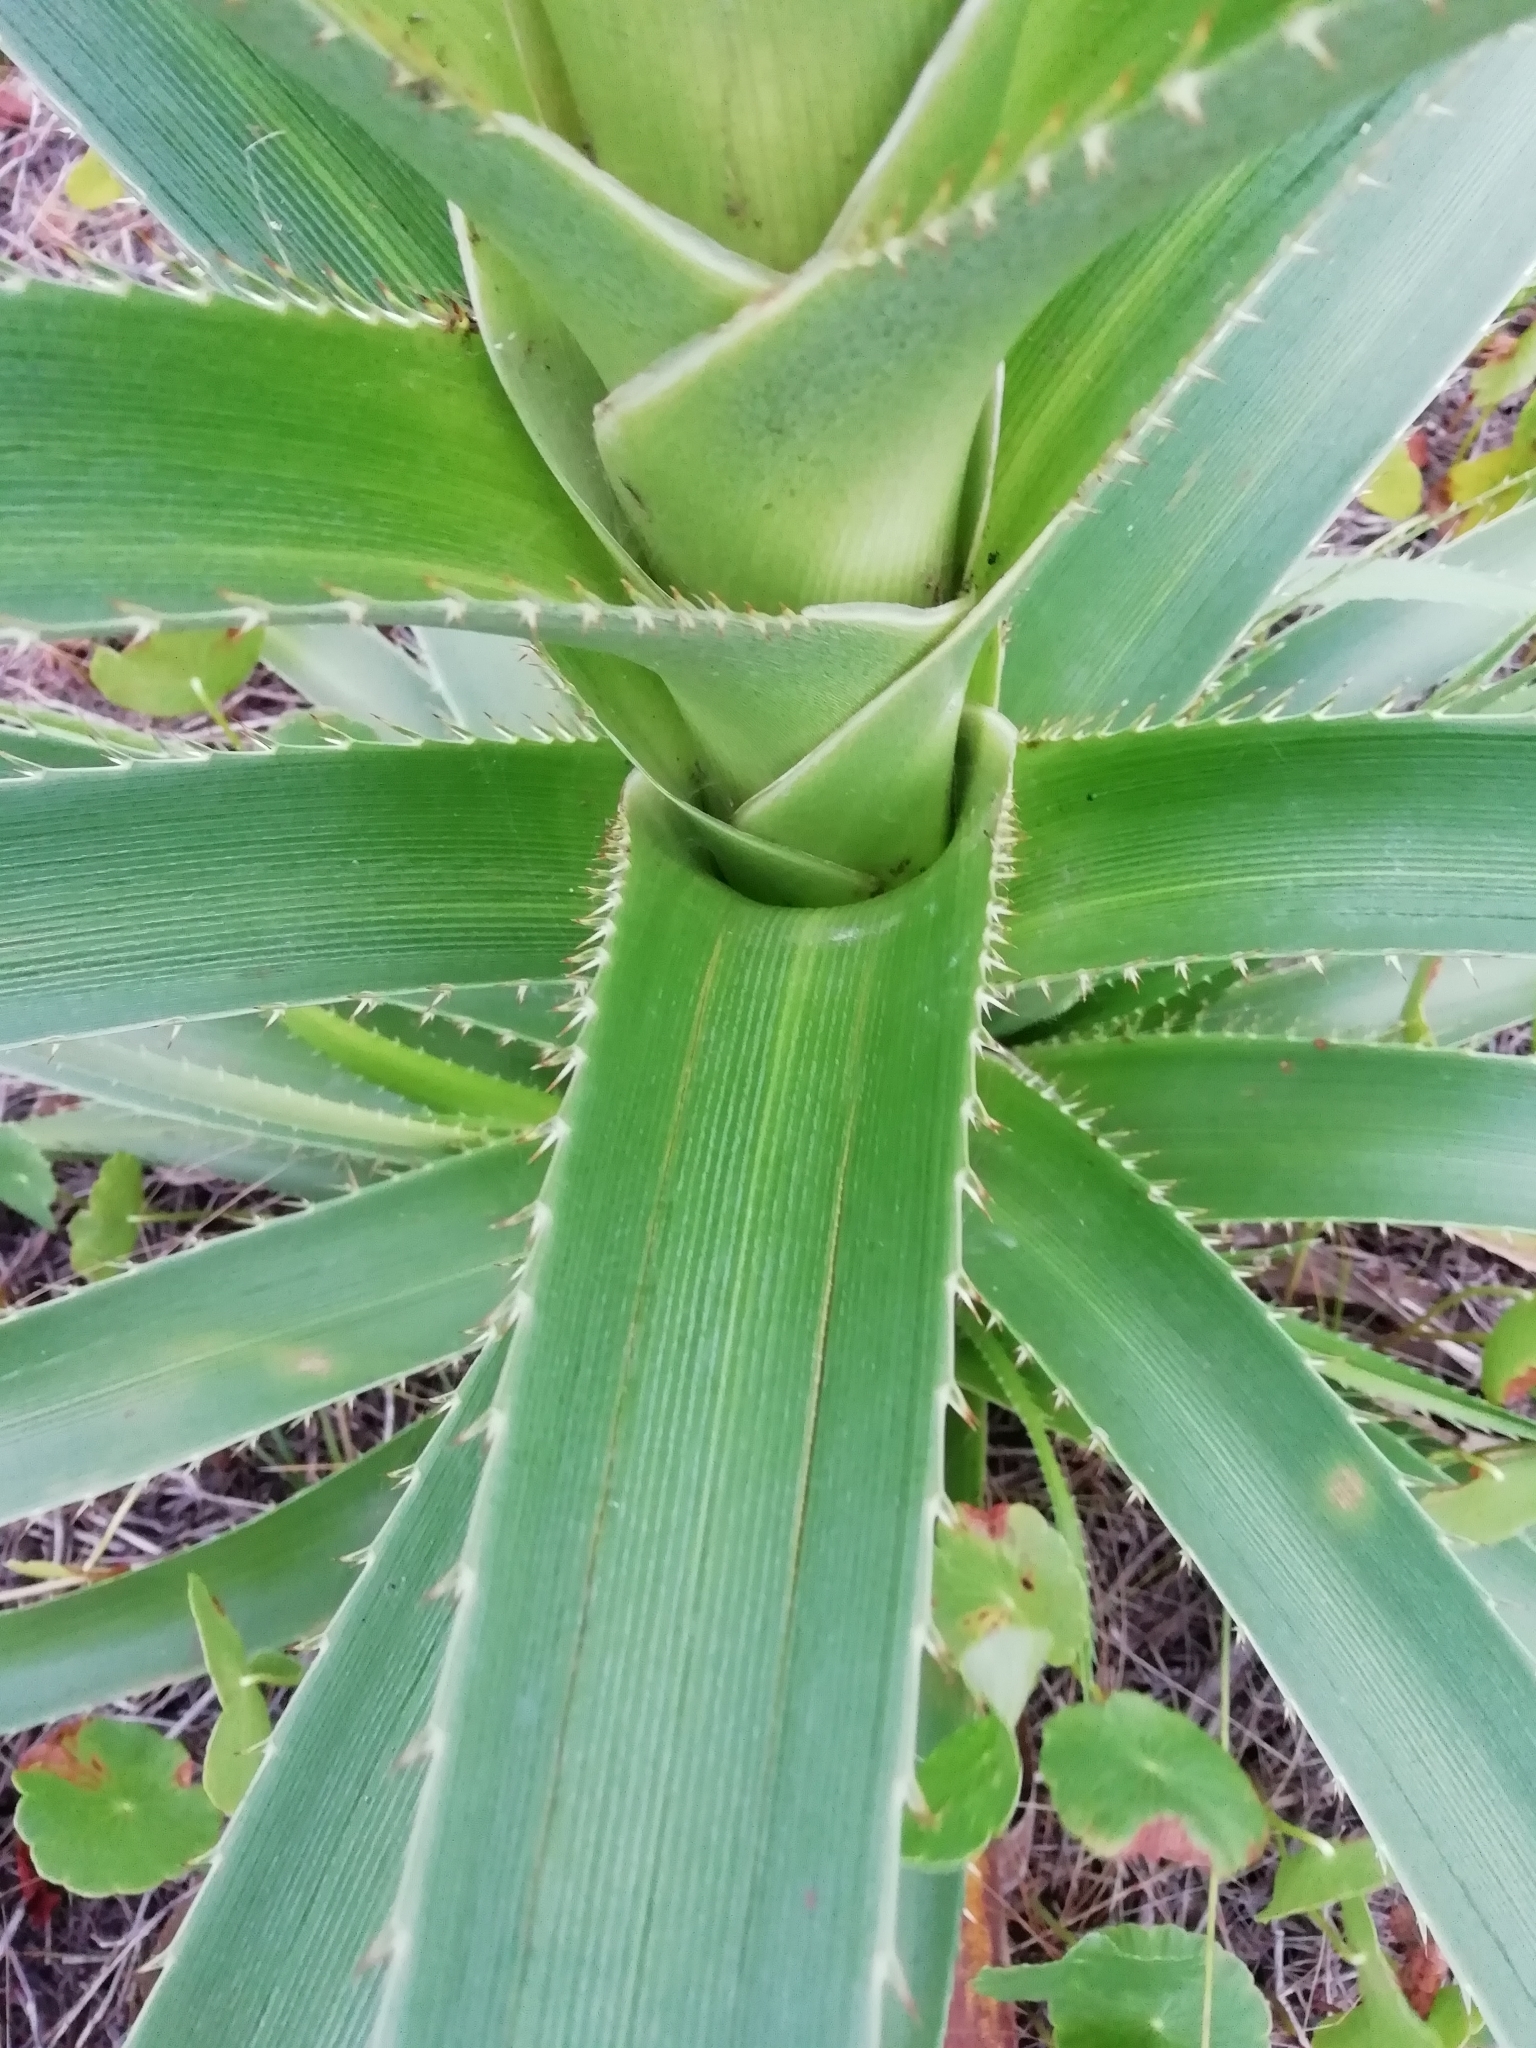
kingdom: Plantae
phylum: Tracheophyta
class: Magnoliopsida
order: Apiales
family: Apiaceae
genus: Eryngium
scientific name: Eryngium eburneum
